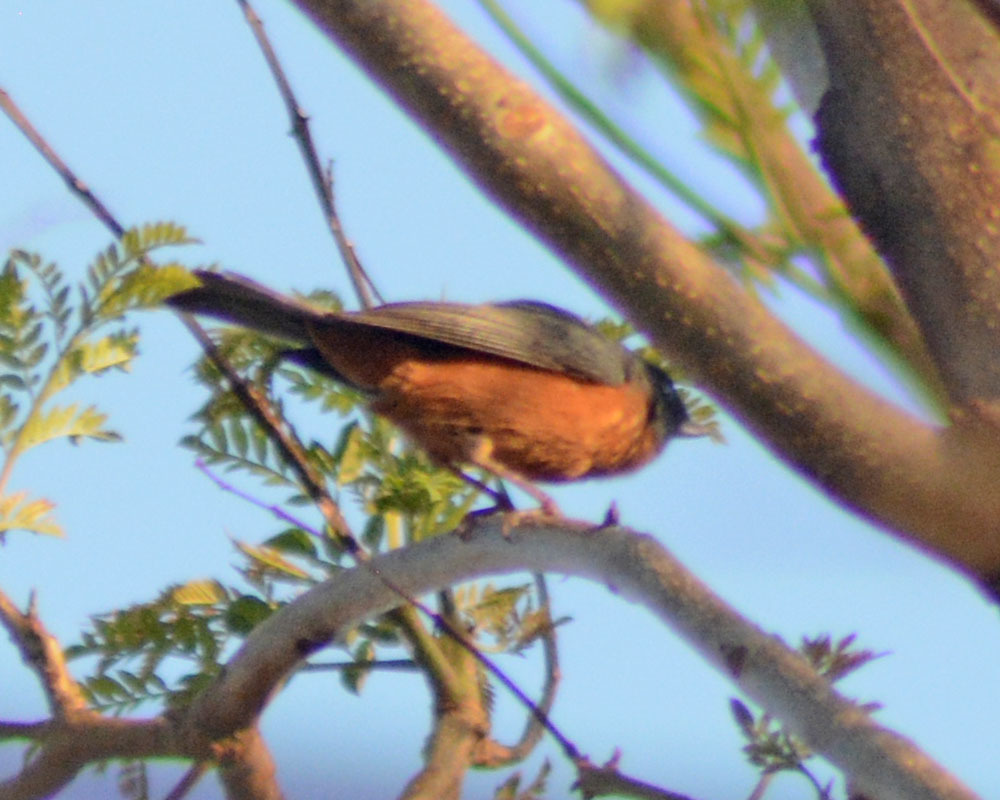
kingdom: Animalia
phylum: Chordata
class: Aves
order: Passeriformes
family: Thraupidae
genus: Diglossa
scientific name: Diglossa baritula
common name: Cinnamon-bellied flowerpiercer
